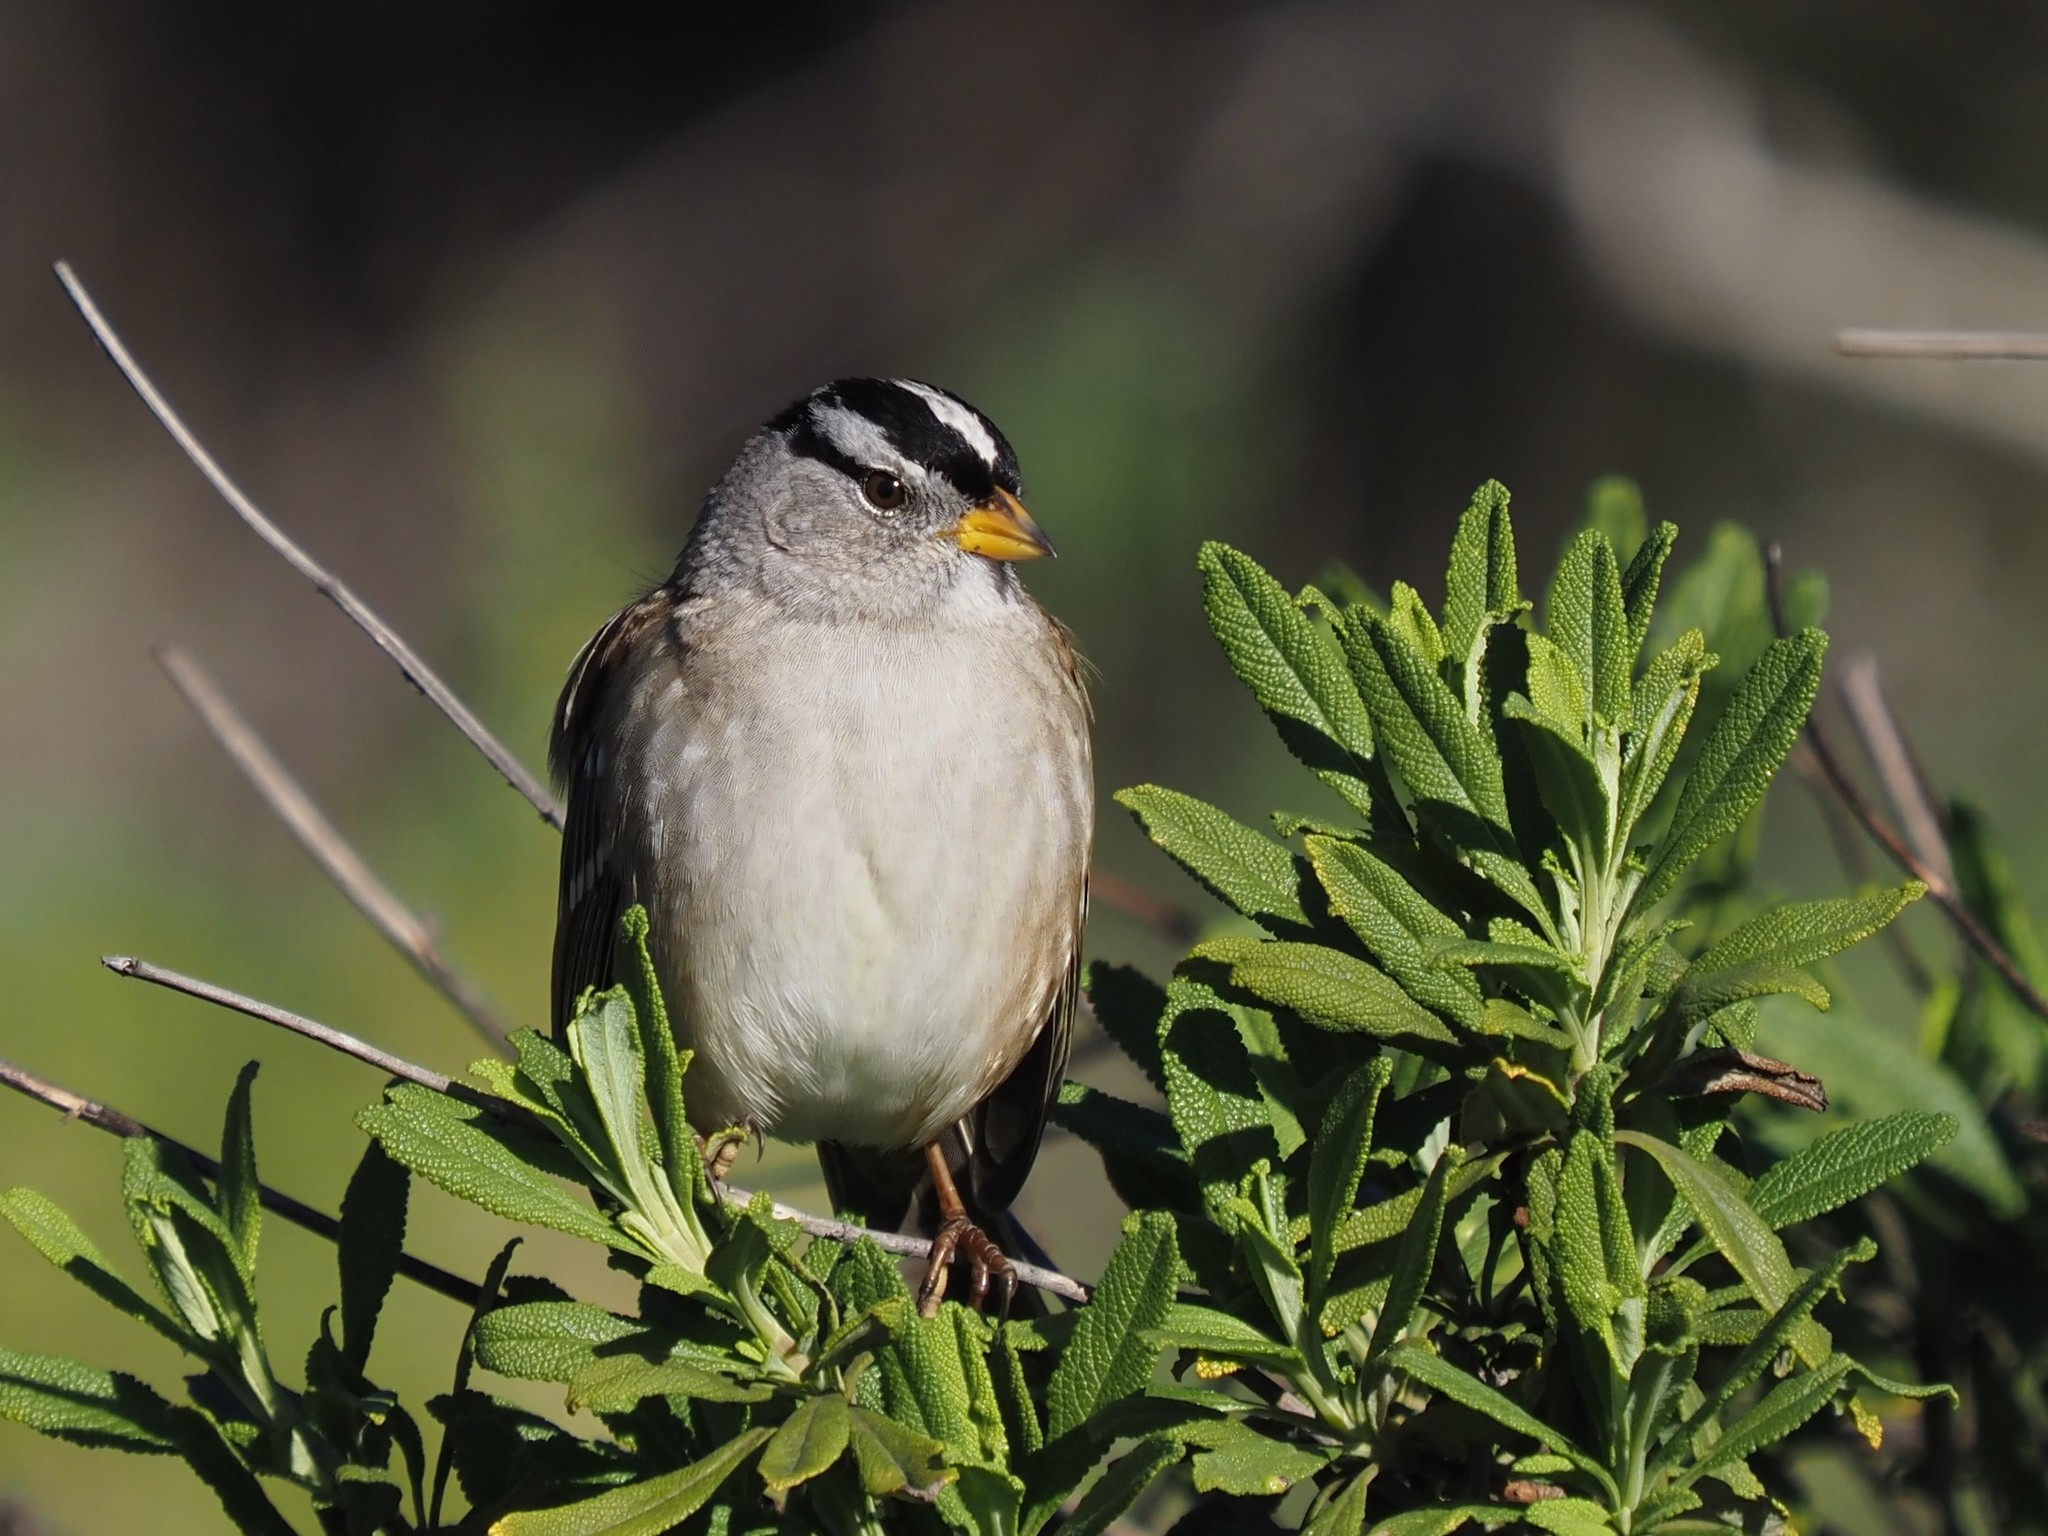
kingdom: Animalia
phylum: Chordata
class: Aves
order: Passeriformes
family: Passerellidae
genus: Zonotrichia
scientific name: Zonotrichia leucophrys
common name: White-crowned sparrow
